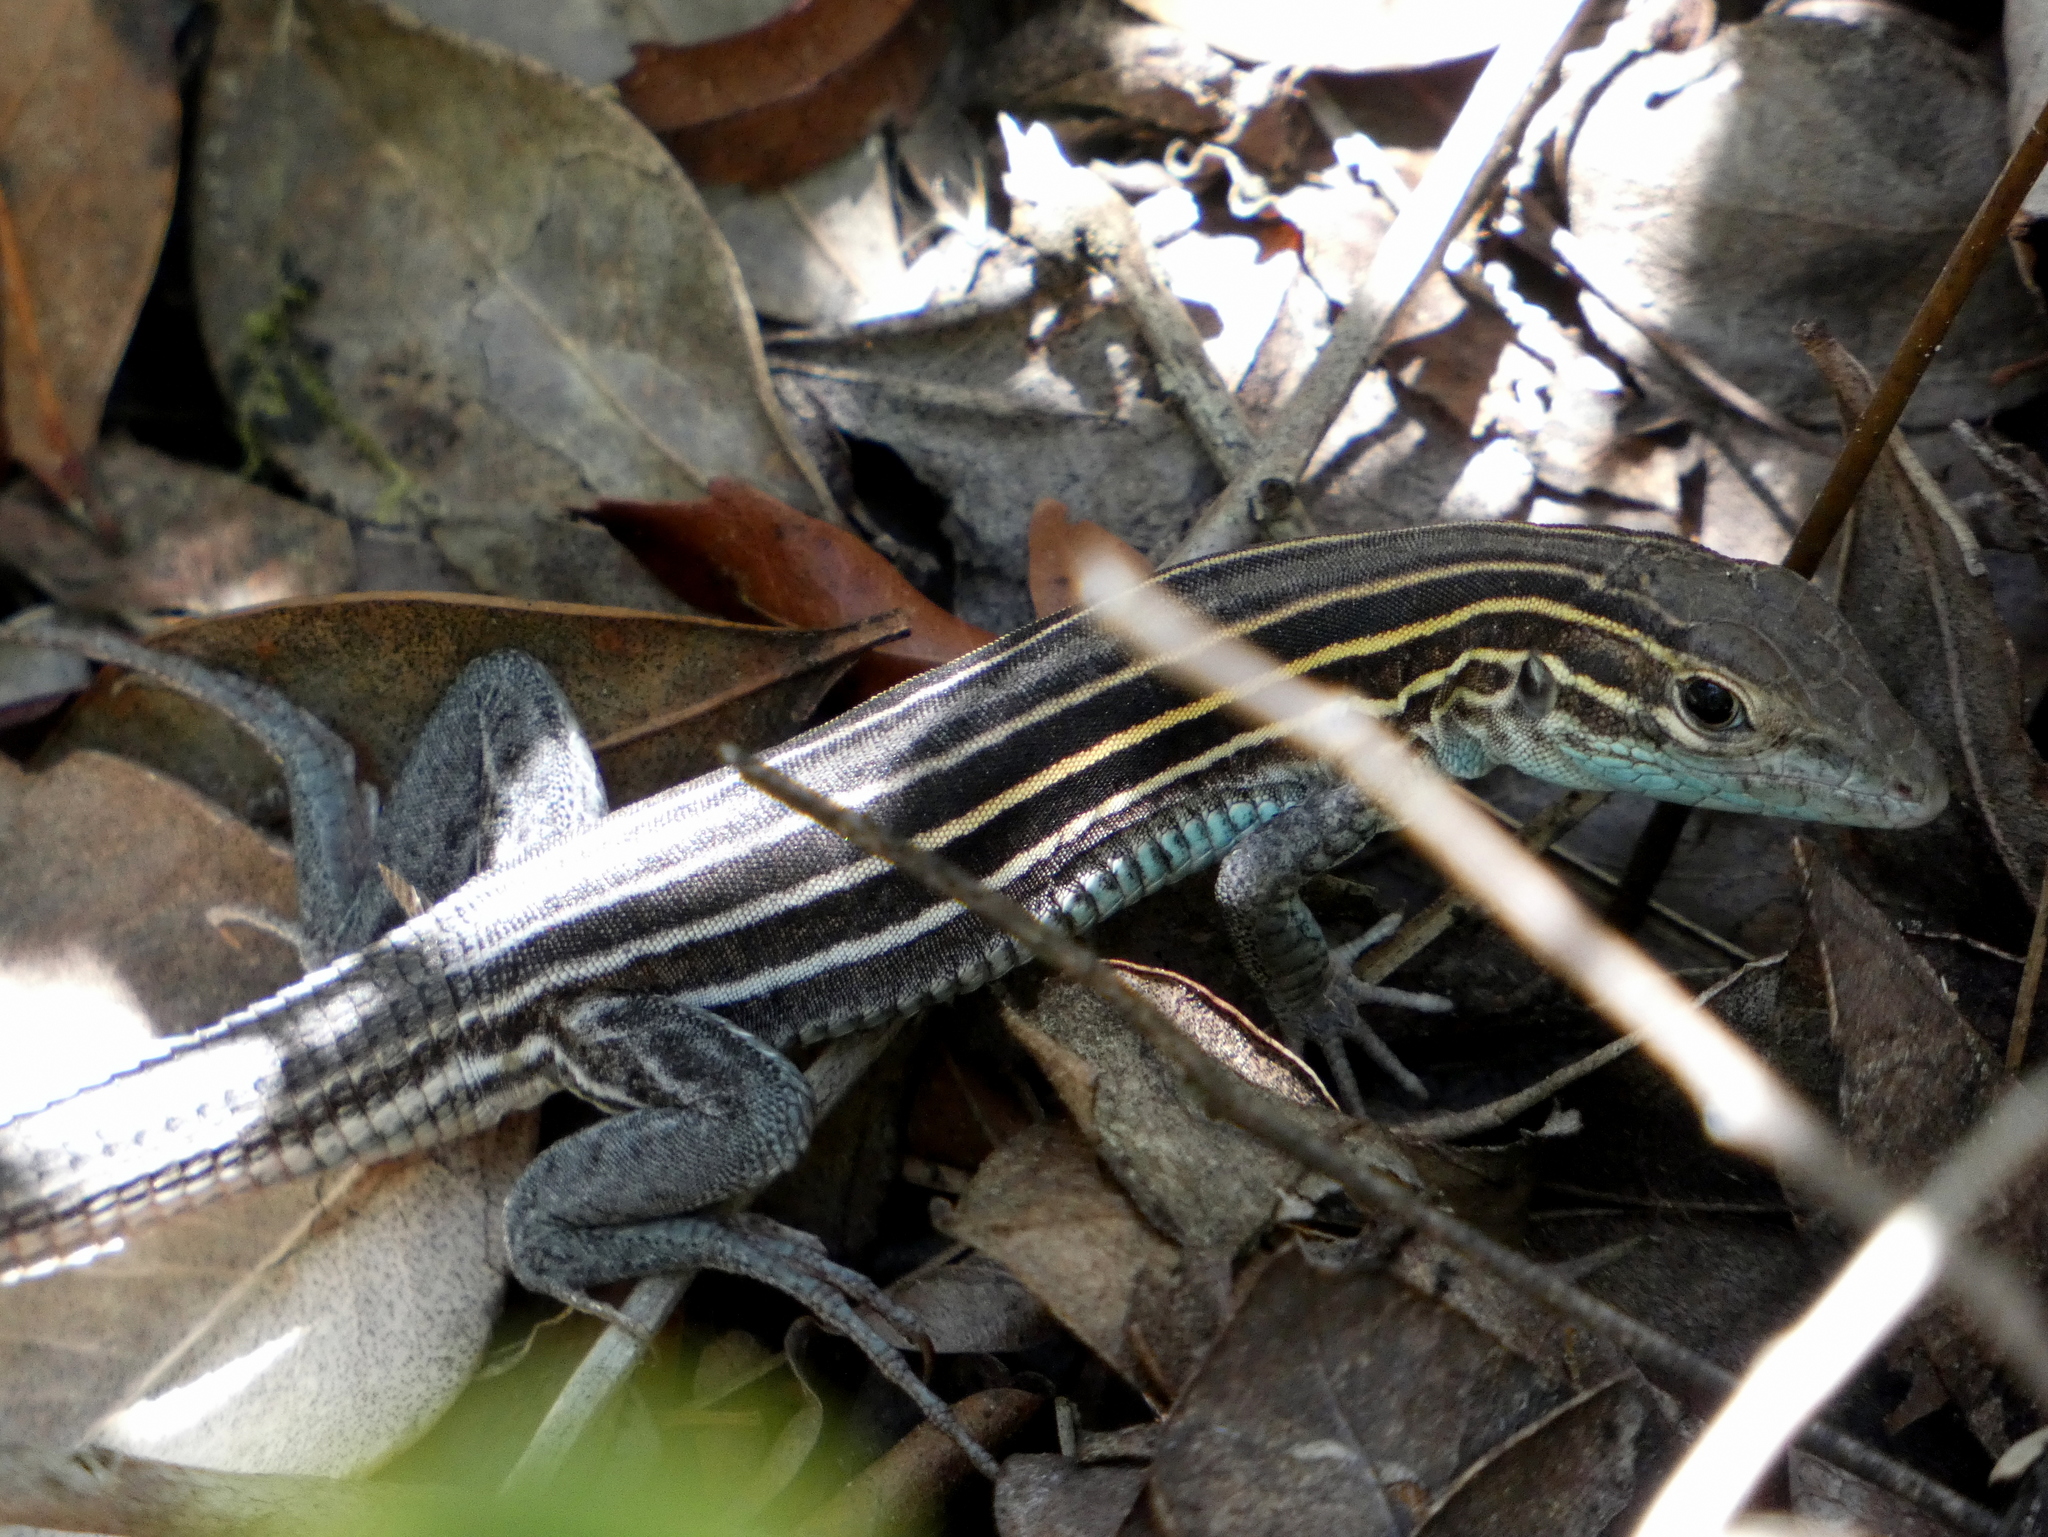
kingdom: Animalia
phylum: Chordata
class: Squamata
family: Teiidae
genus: Aspidoscelis
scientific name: Aspidoscelis sexlineatus
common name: Six-lined racerunner
